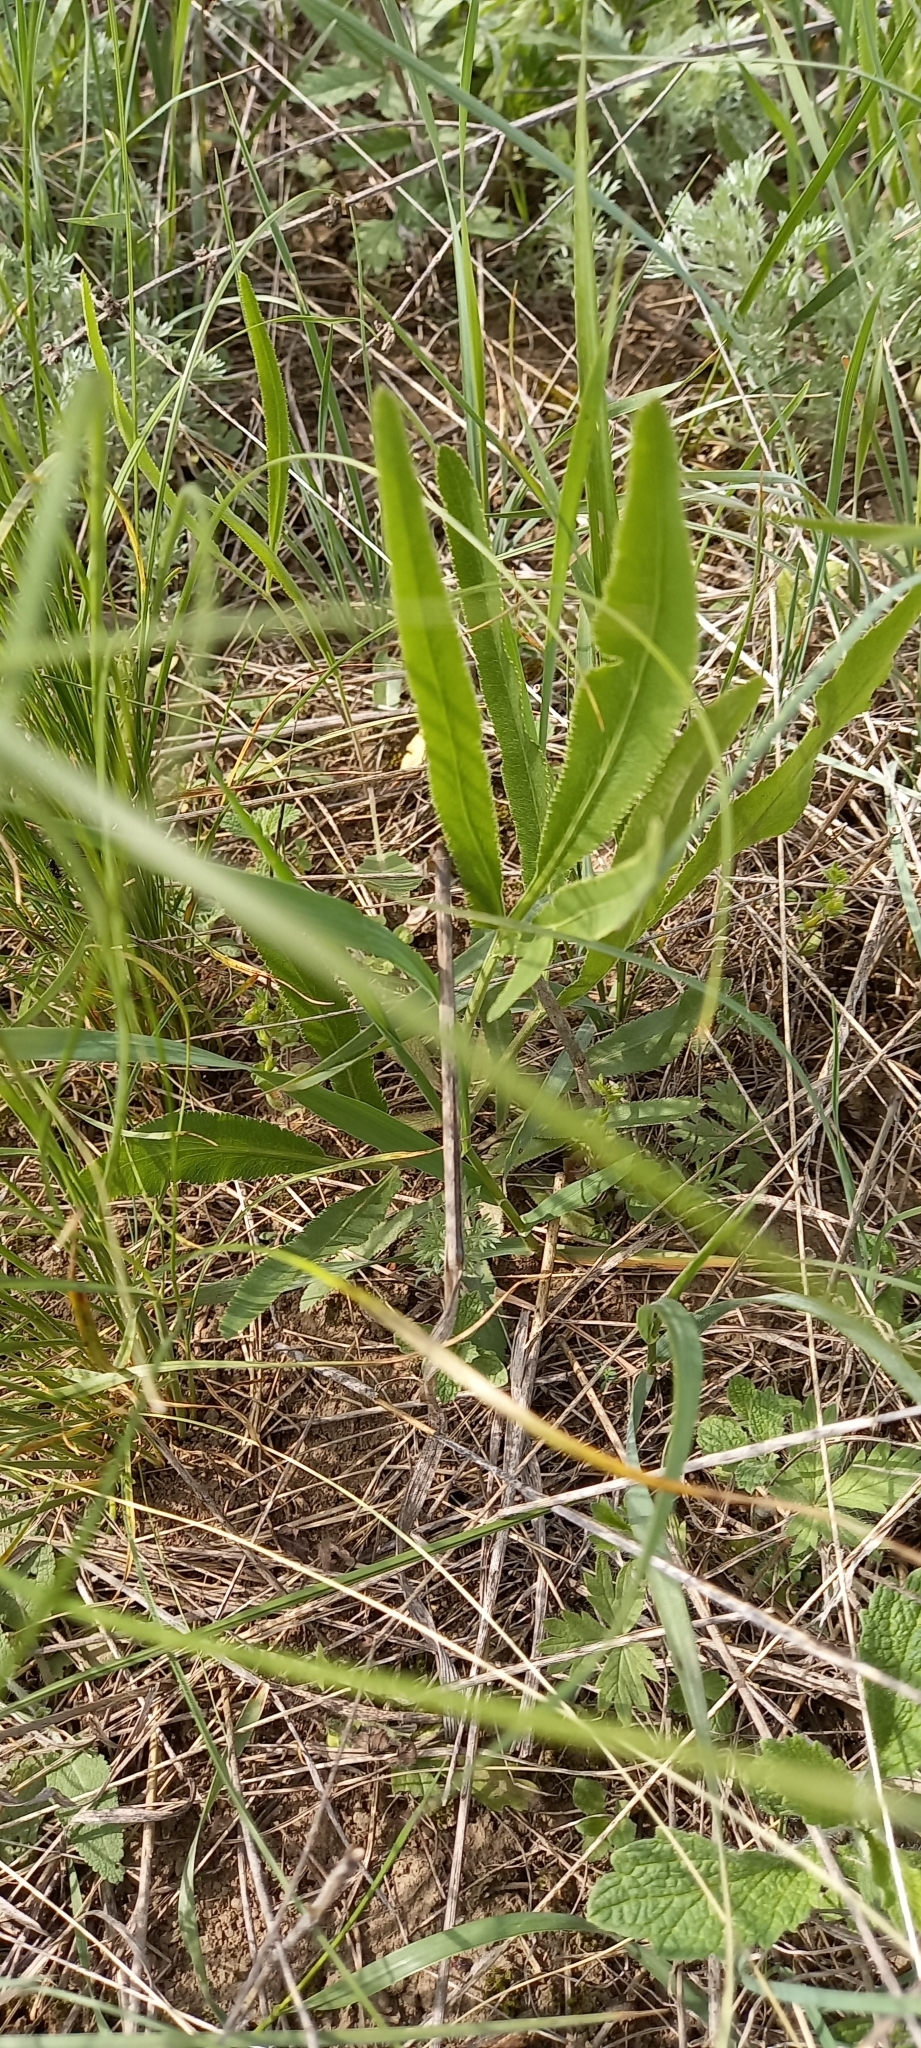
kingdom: Plantae
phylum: Tracheophyta
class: Magnoliopsida
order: Apiales
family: Apiaceae
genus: Falcaria
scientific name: Falcaria vulgaris
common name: Longleaf
